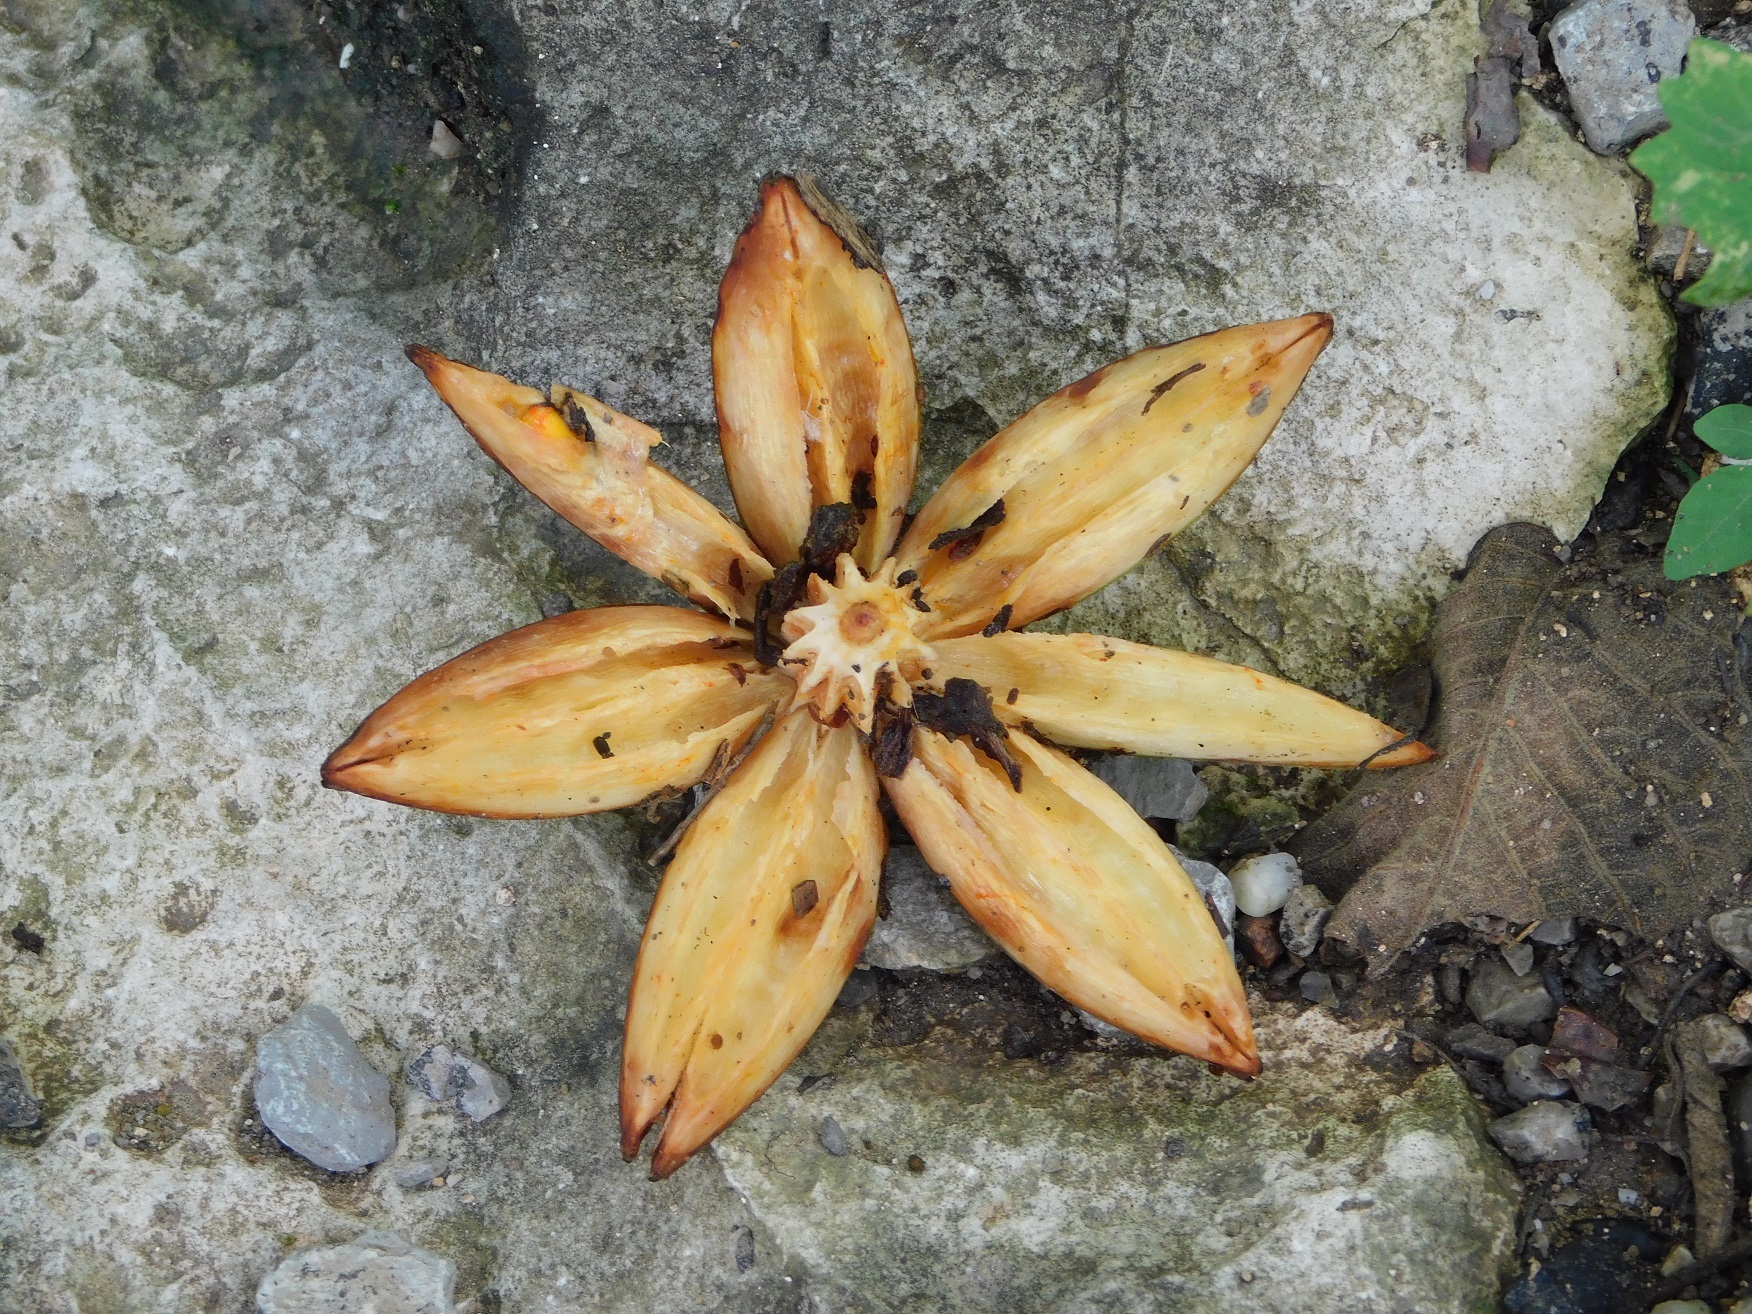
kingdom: Plantae
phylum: Tracheophyta
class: Magnoliopsida
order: Malpighiales
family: Clusiaceae
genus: Clusia
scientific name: Clusia tetratrianthera
